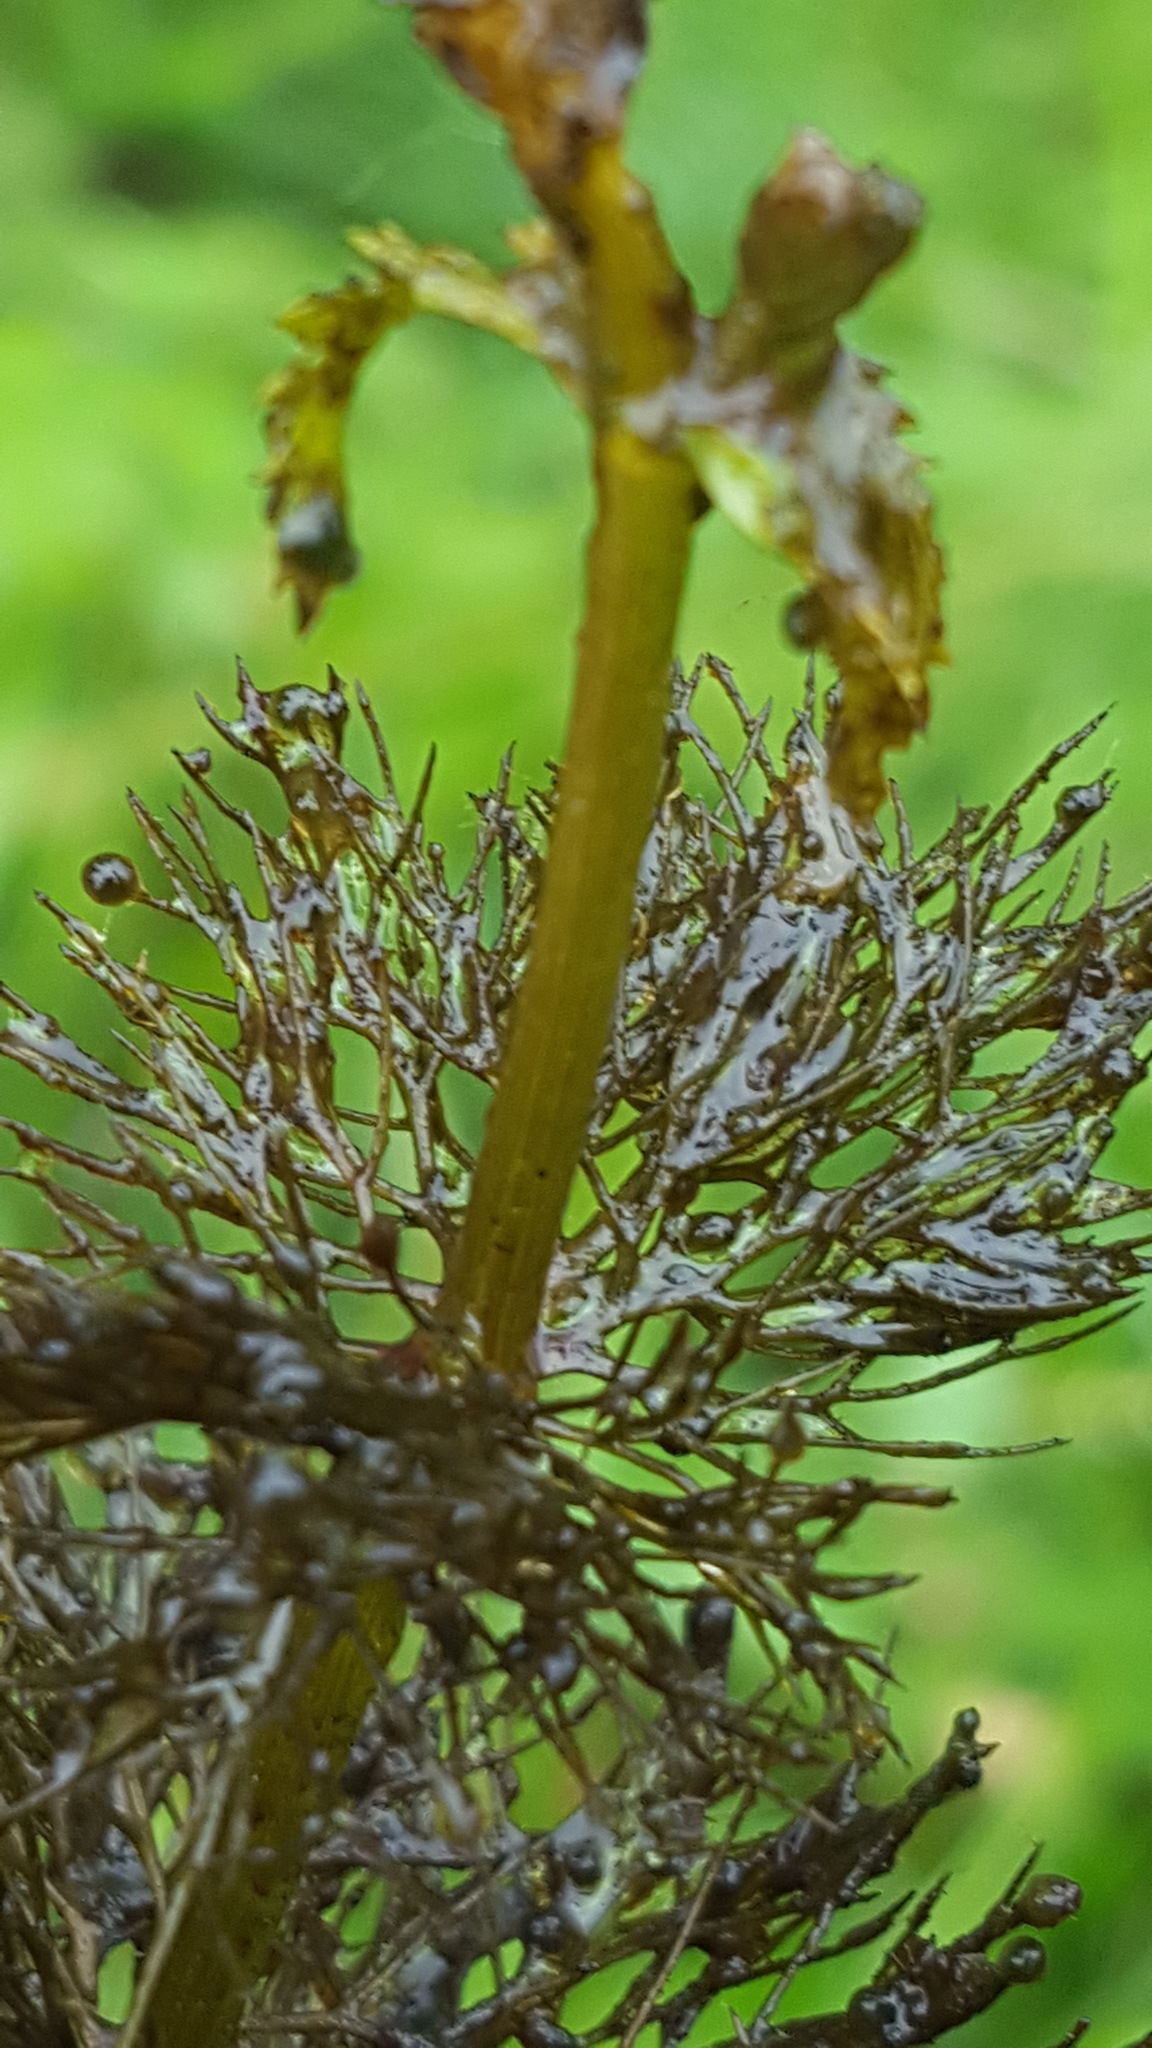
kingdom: Plantae
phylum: Tracheophyta
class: Magnoliopsida
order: Asterales
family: Asteraceae
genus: Bidens
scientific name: Bidens beckii
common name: Beck's beggarticks
